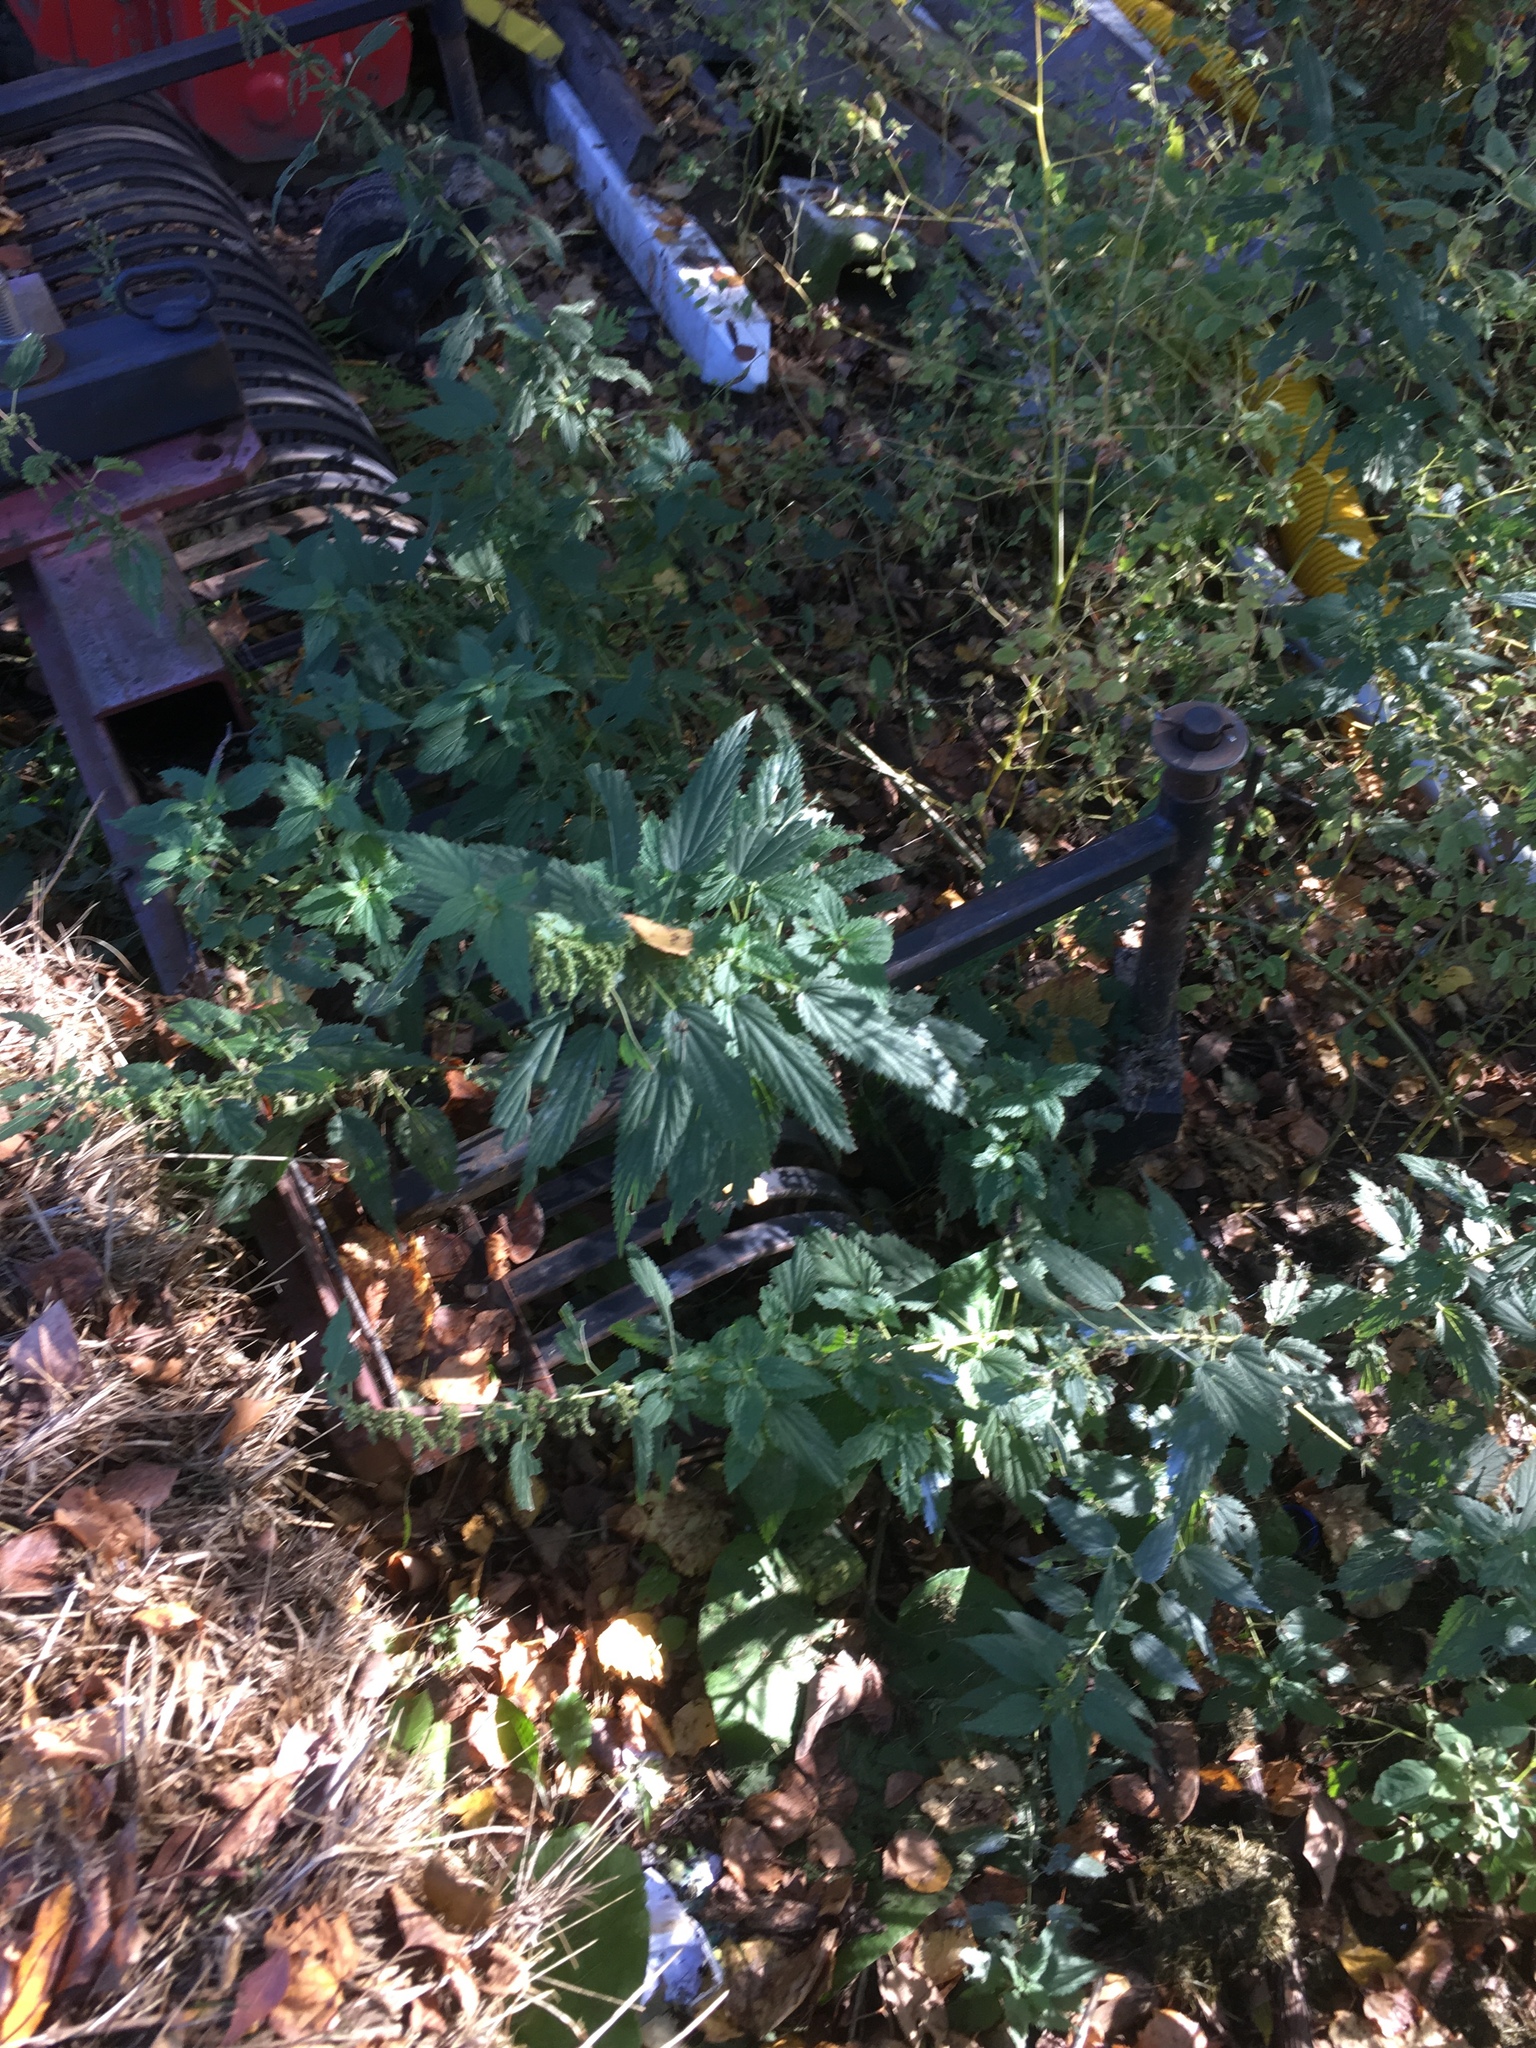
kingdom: Plantae
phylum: Tracheophyta
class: Magnoliopsida
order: Rosales
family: Urticaceae
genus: Urtica
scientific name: Urtica dioica
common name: Common nettle
